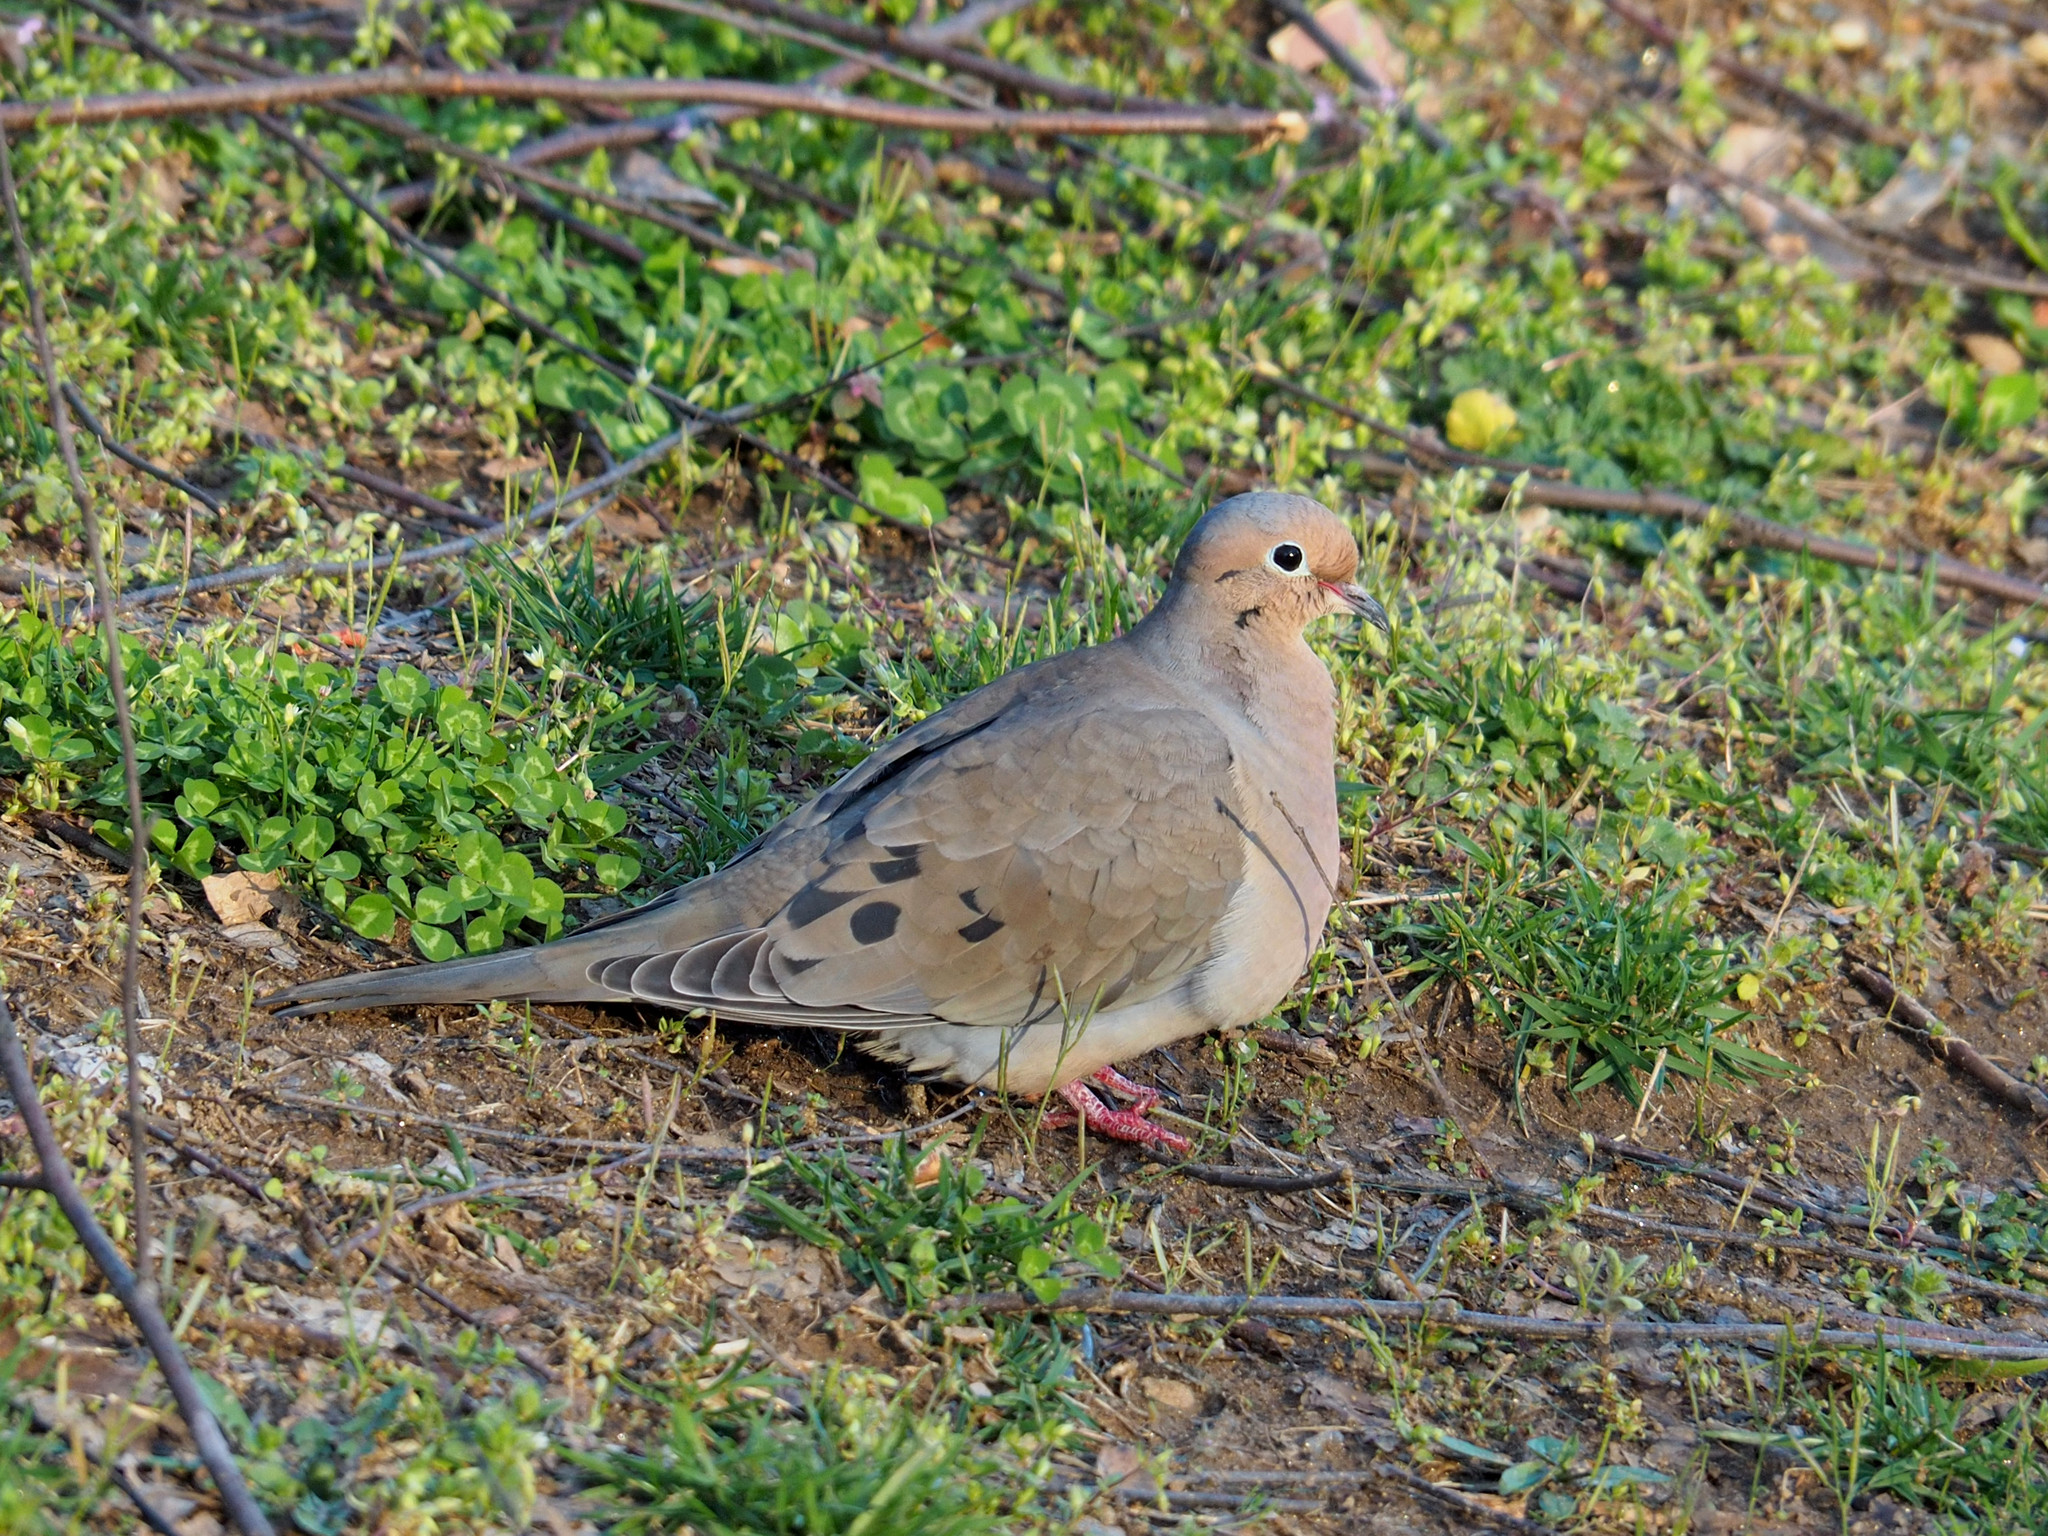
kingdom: Animalia
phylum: Chordata
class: Aves
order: Columbiformes
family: Columbidae
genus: Zenaida
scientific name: Zenaida macroura
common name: Mourning dove
